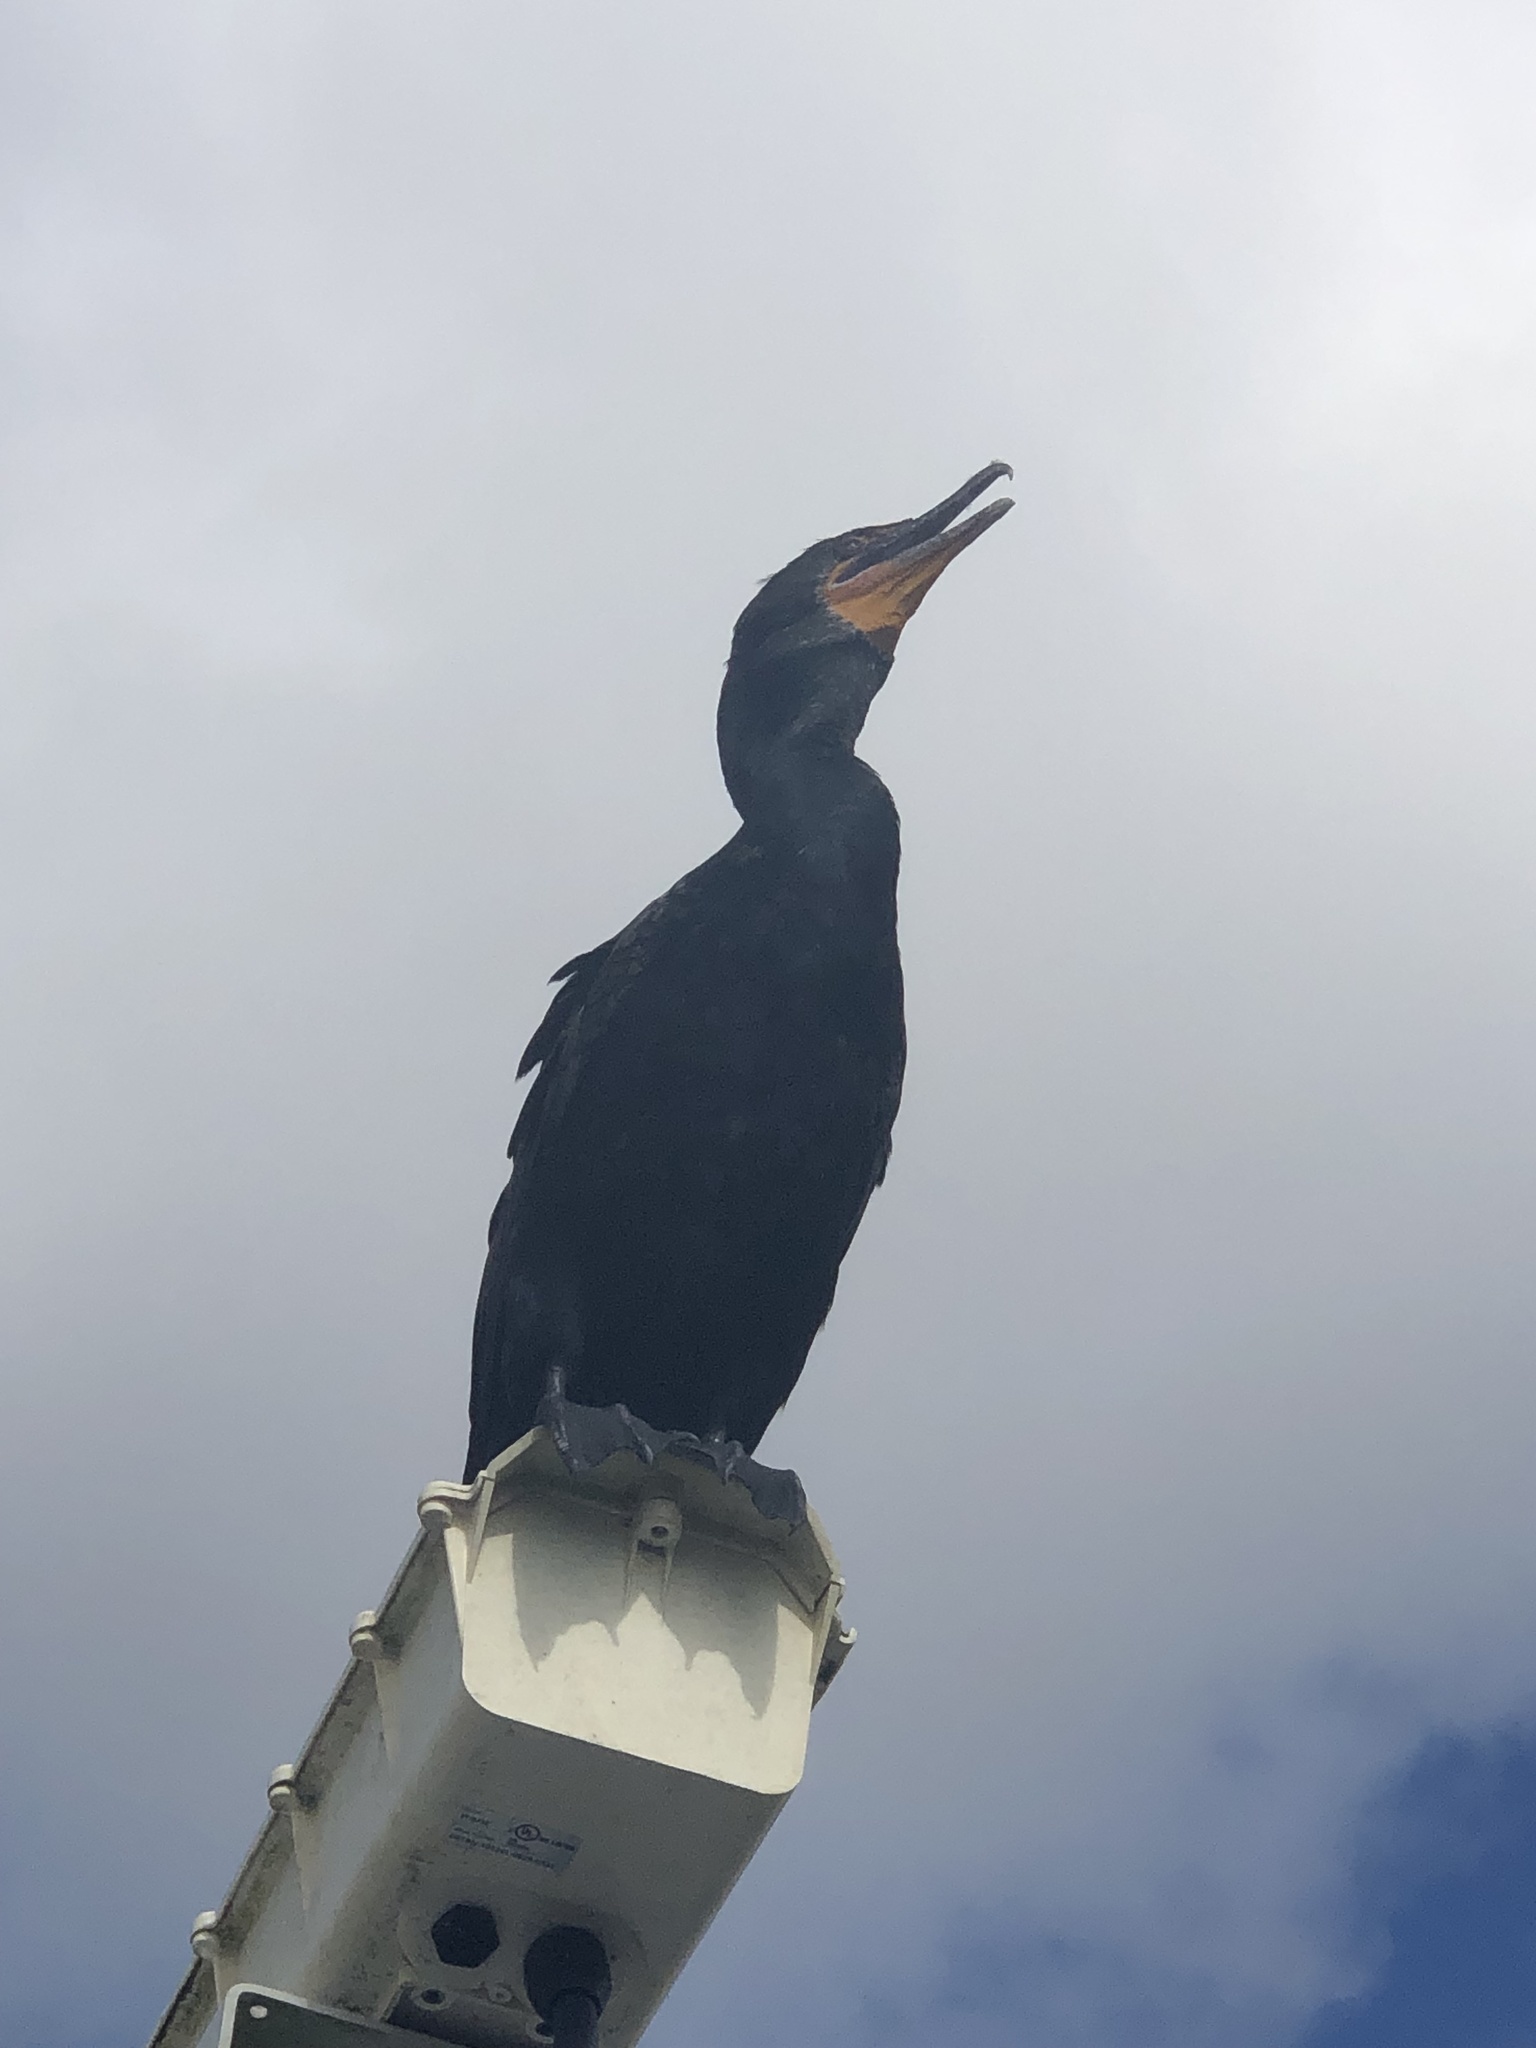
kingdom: Animalia
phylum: Chordata
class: Aves
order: Suliformes
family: Phalacrocoracidae
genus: Phalacrocorax
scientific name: Phalacrocorax auritus
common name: Double-crested cormorant
